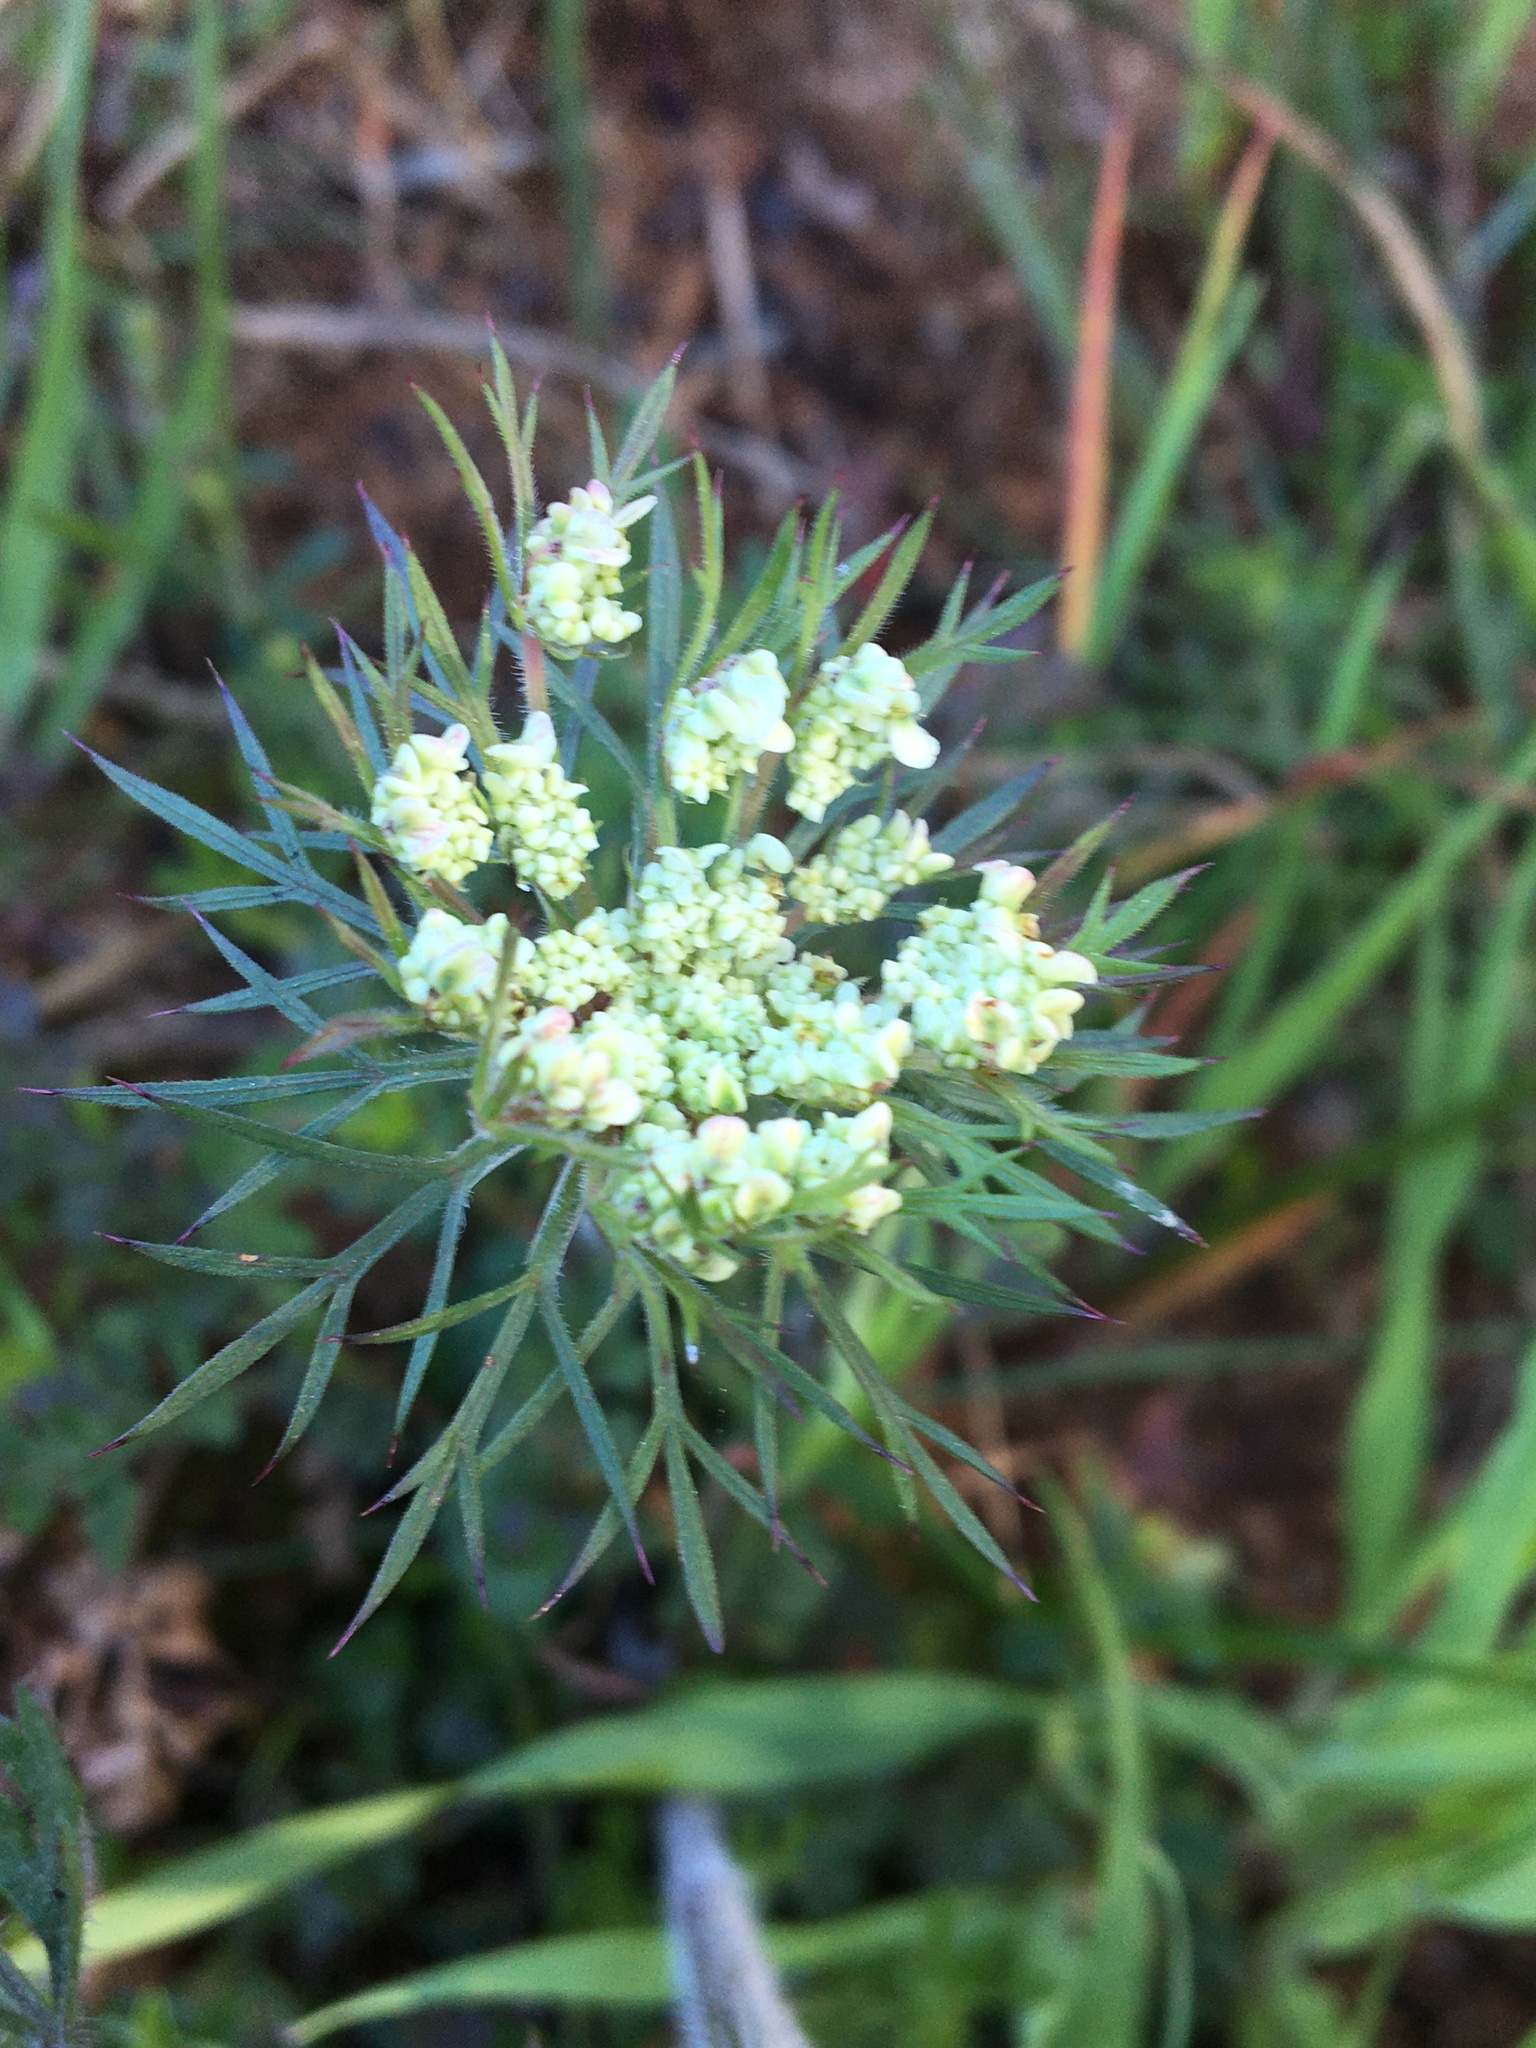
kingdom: Plantae
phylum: Tracheophyta
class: Magnoliopsida
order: Apiales
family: Apiaceae
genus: Daucus
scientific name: Daucus carota
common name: Wild carrot
